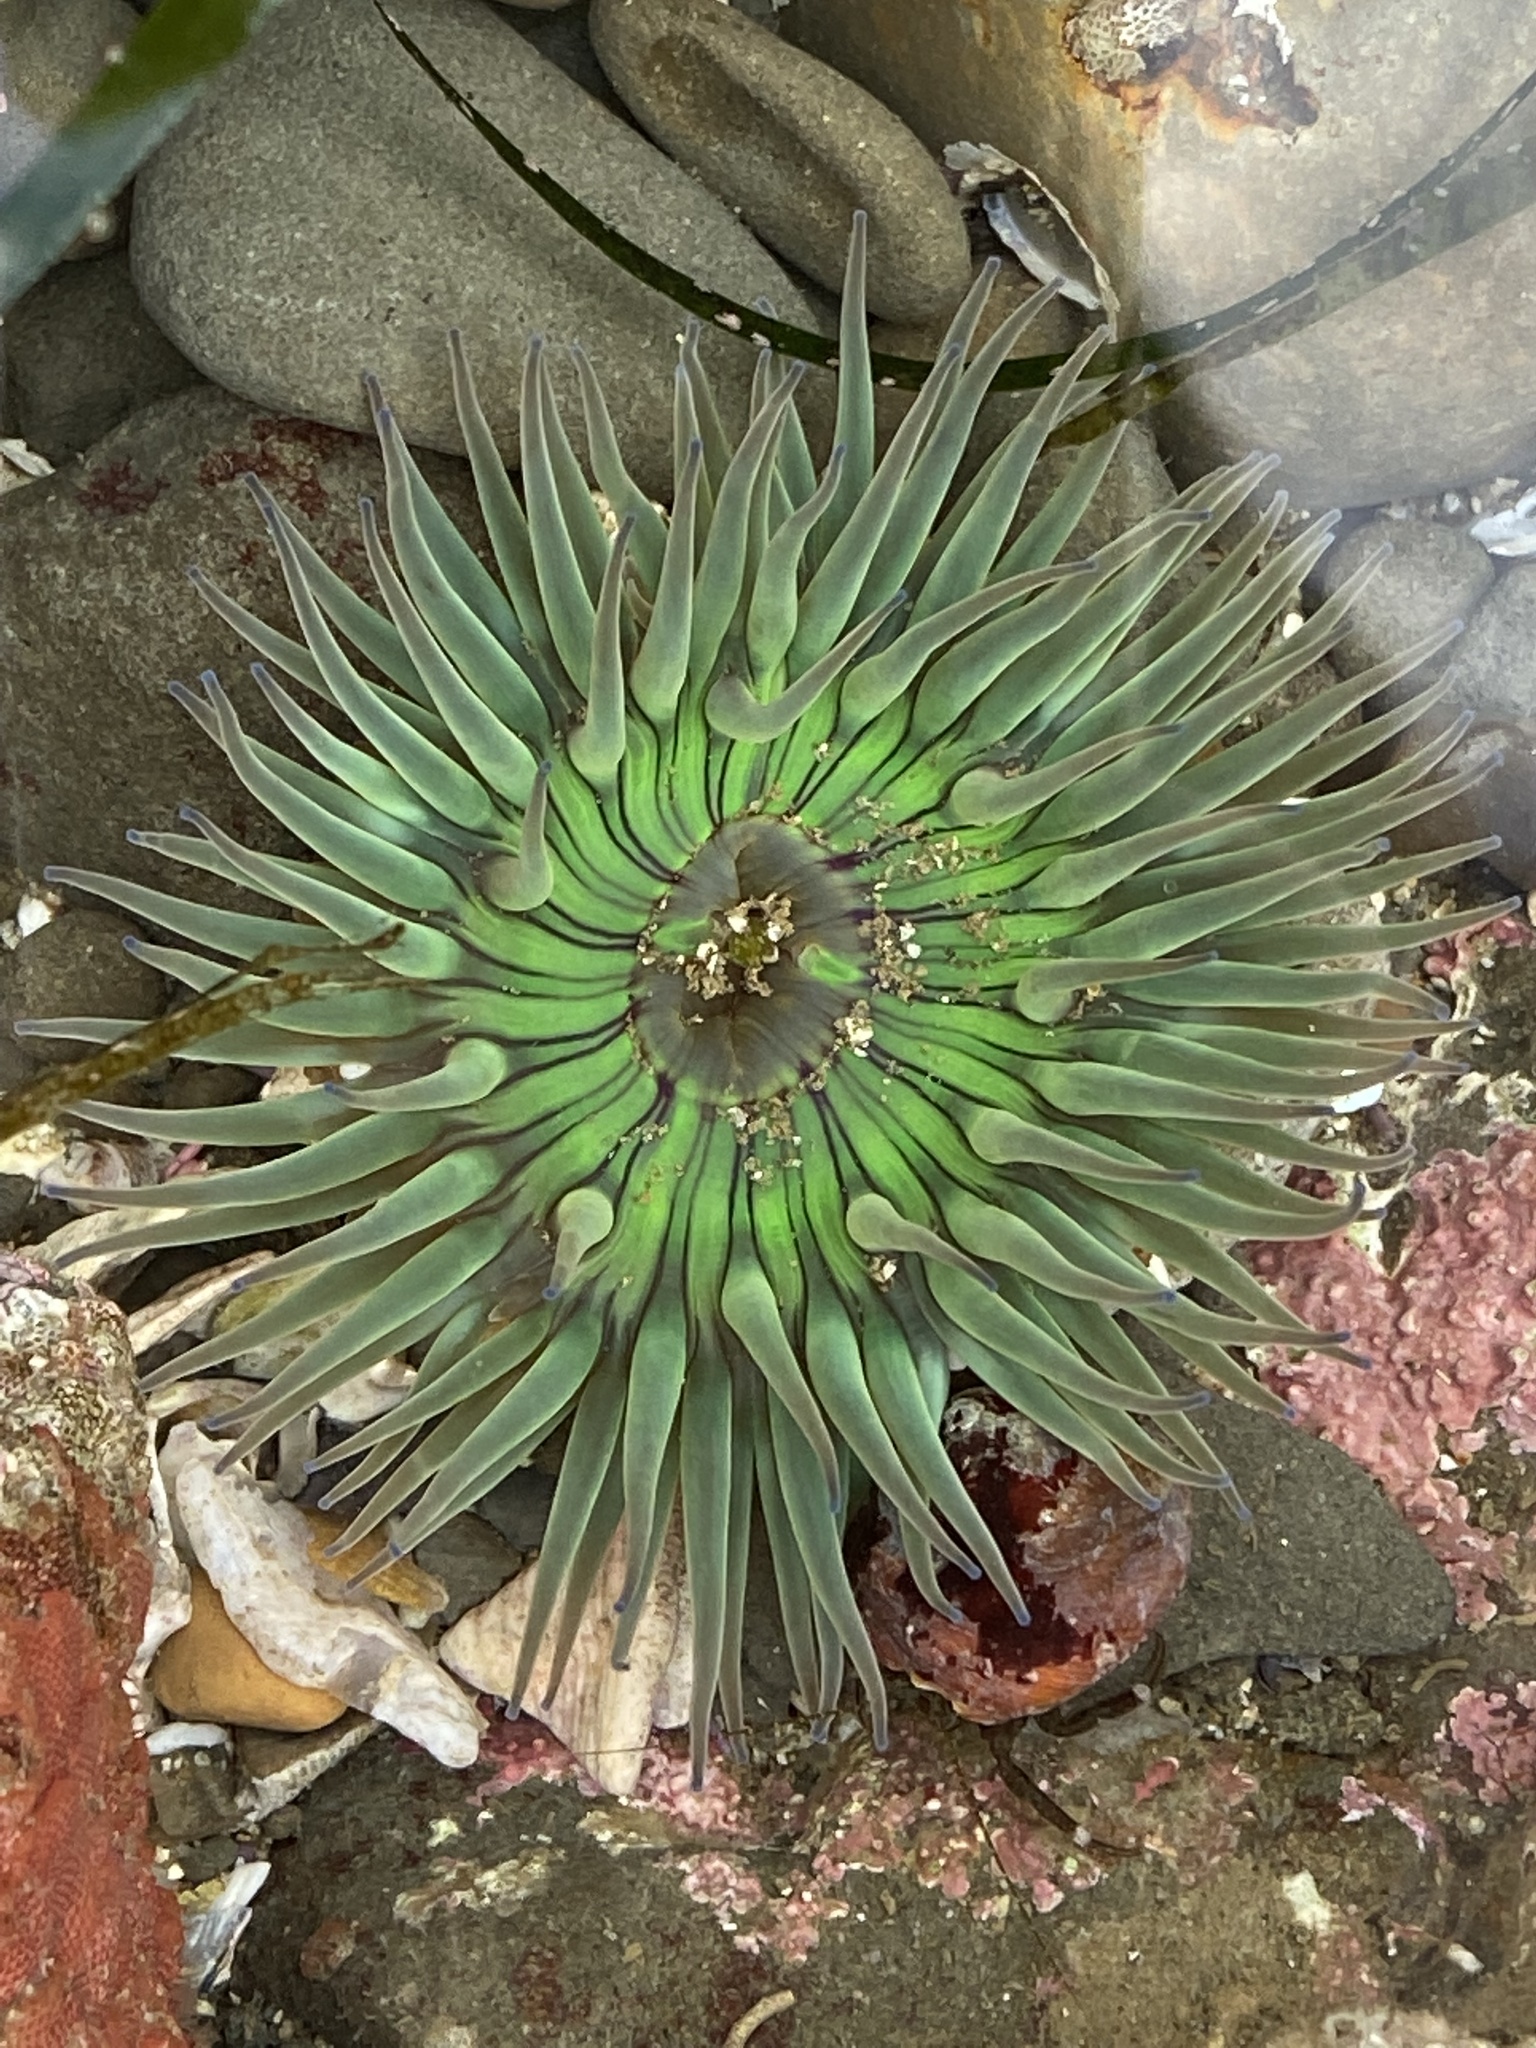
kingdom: Animalia
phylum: Cnidaria
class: Anthozoa
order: Actiniaria
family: Actiniidae
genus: Anthopleura
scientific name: Anthopleura sola
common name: Sun anemone
